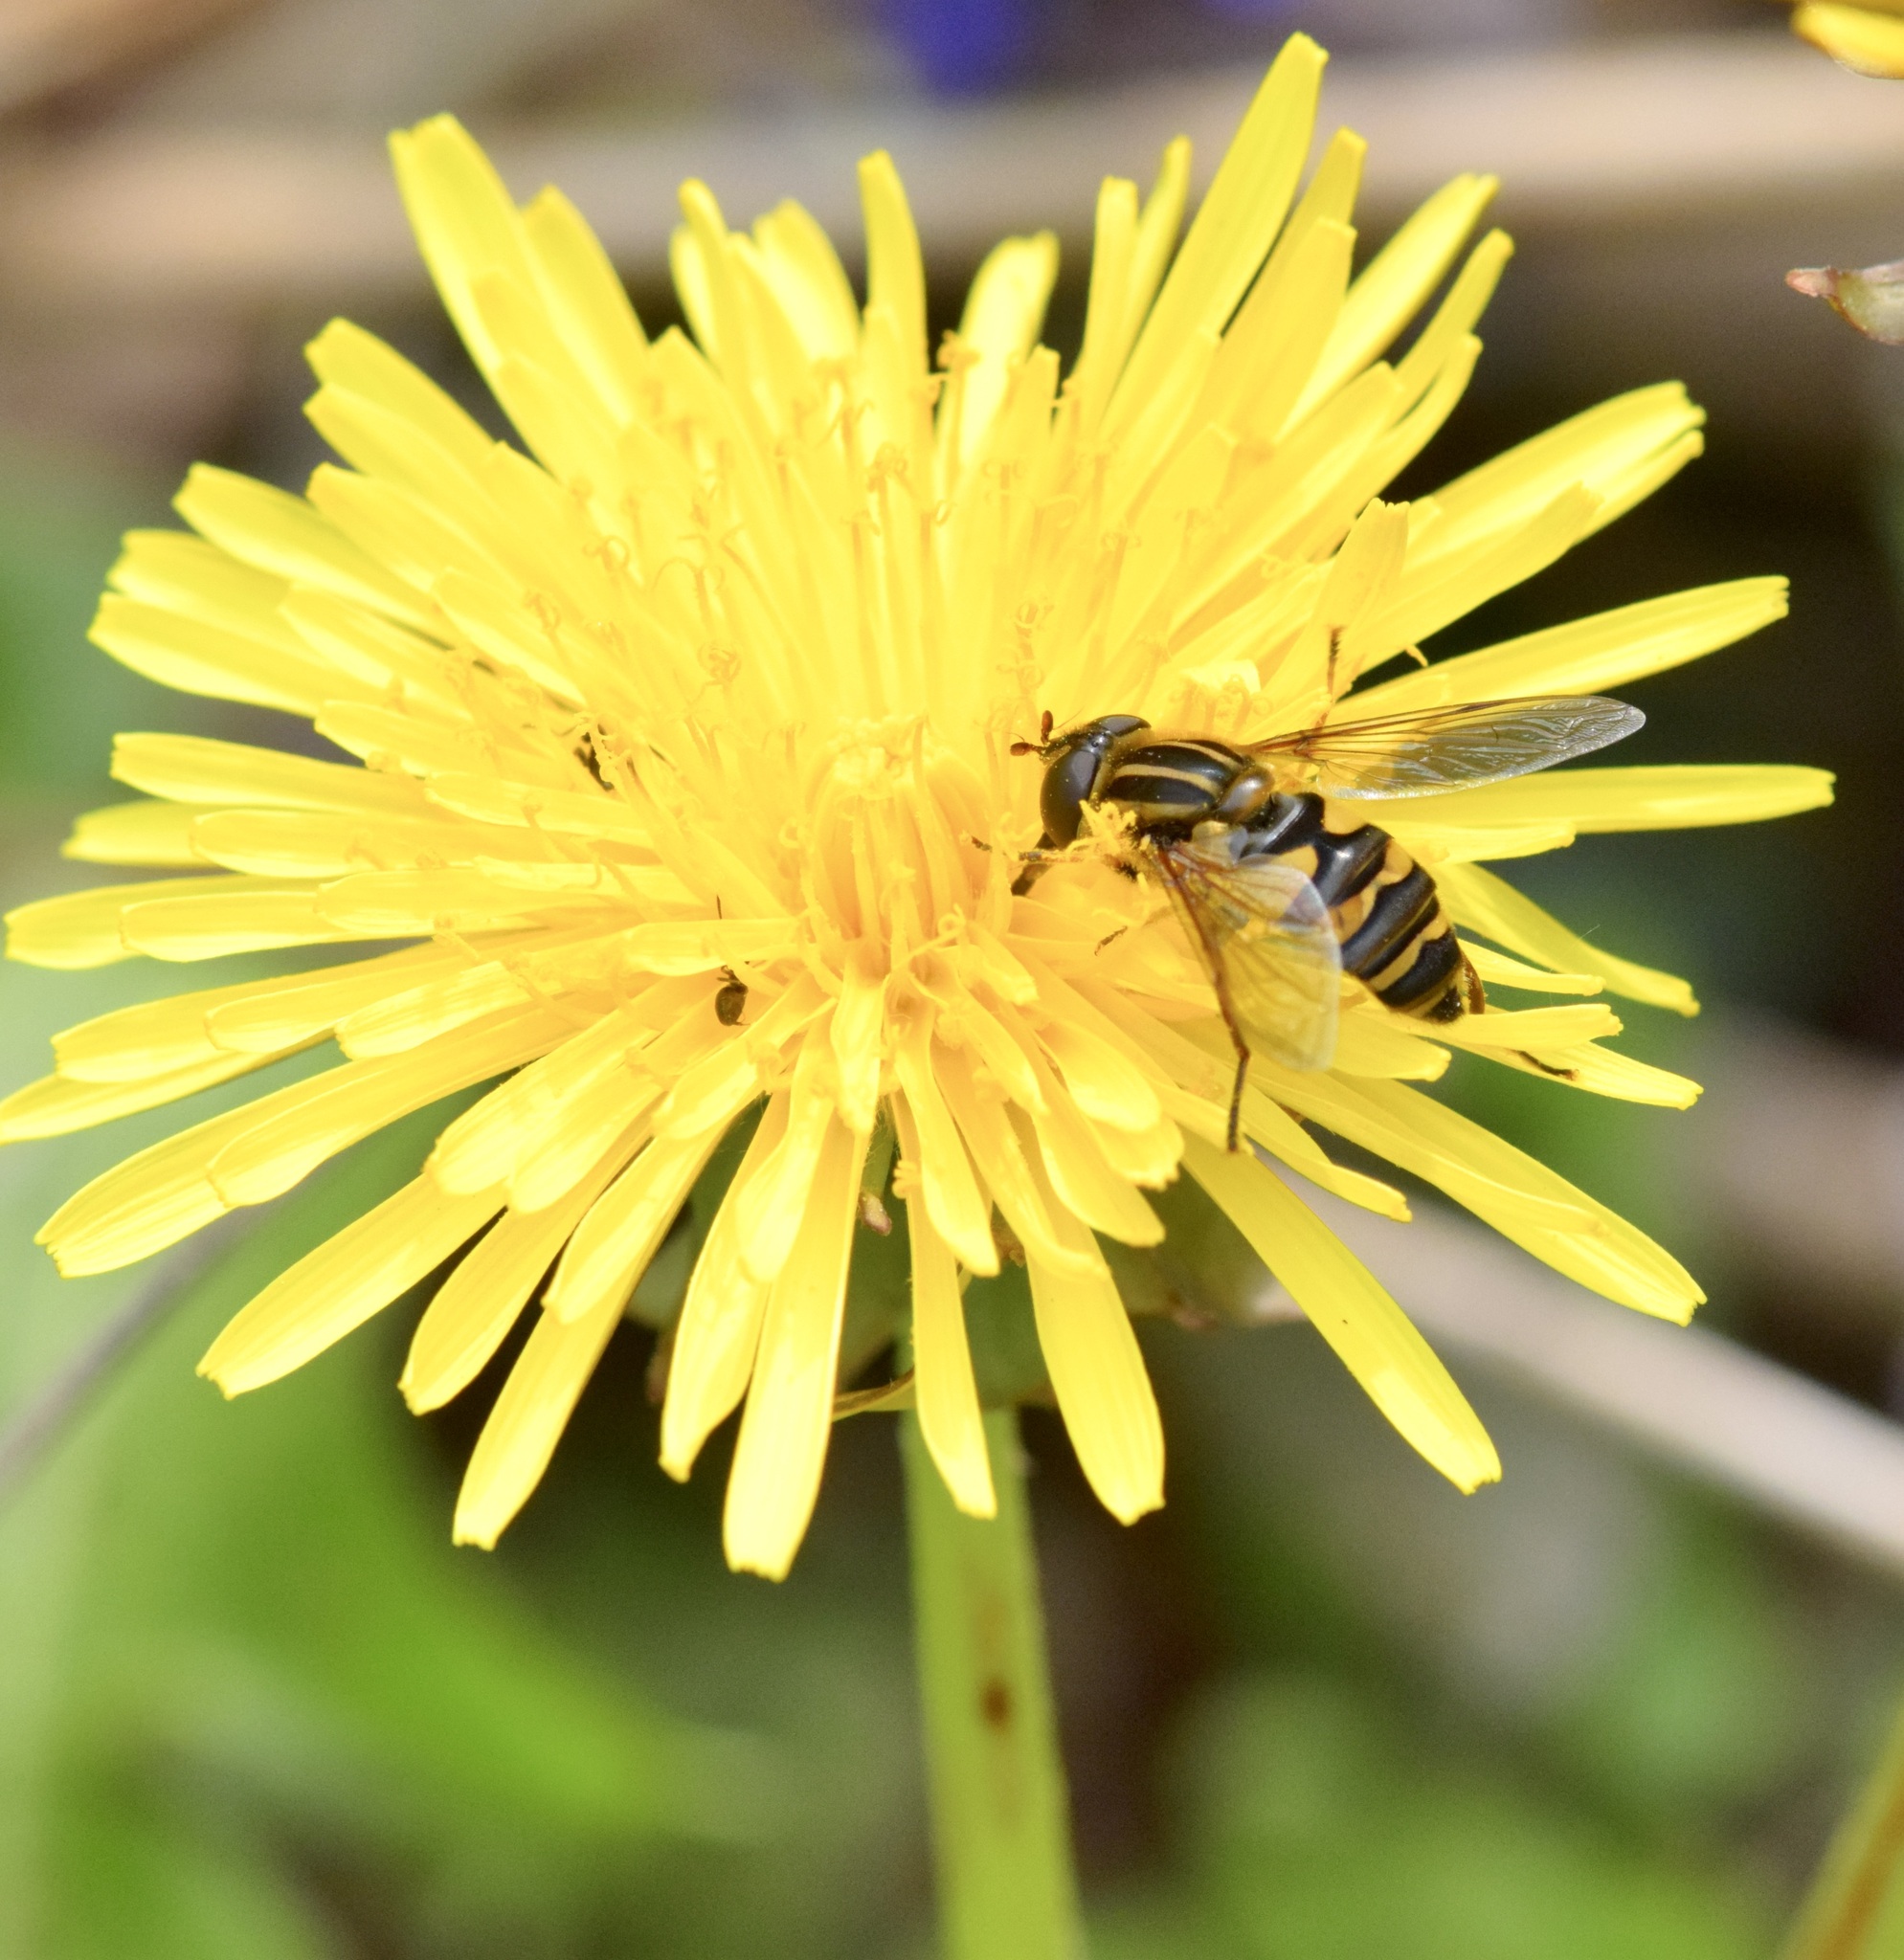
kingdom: Animalia
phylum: Arthropoda
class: Insecta
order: Diptera
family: Syrphidae
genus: Helophilus
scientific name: Helophilus fasciatus
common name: Narrow-headed marsh fly
